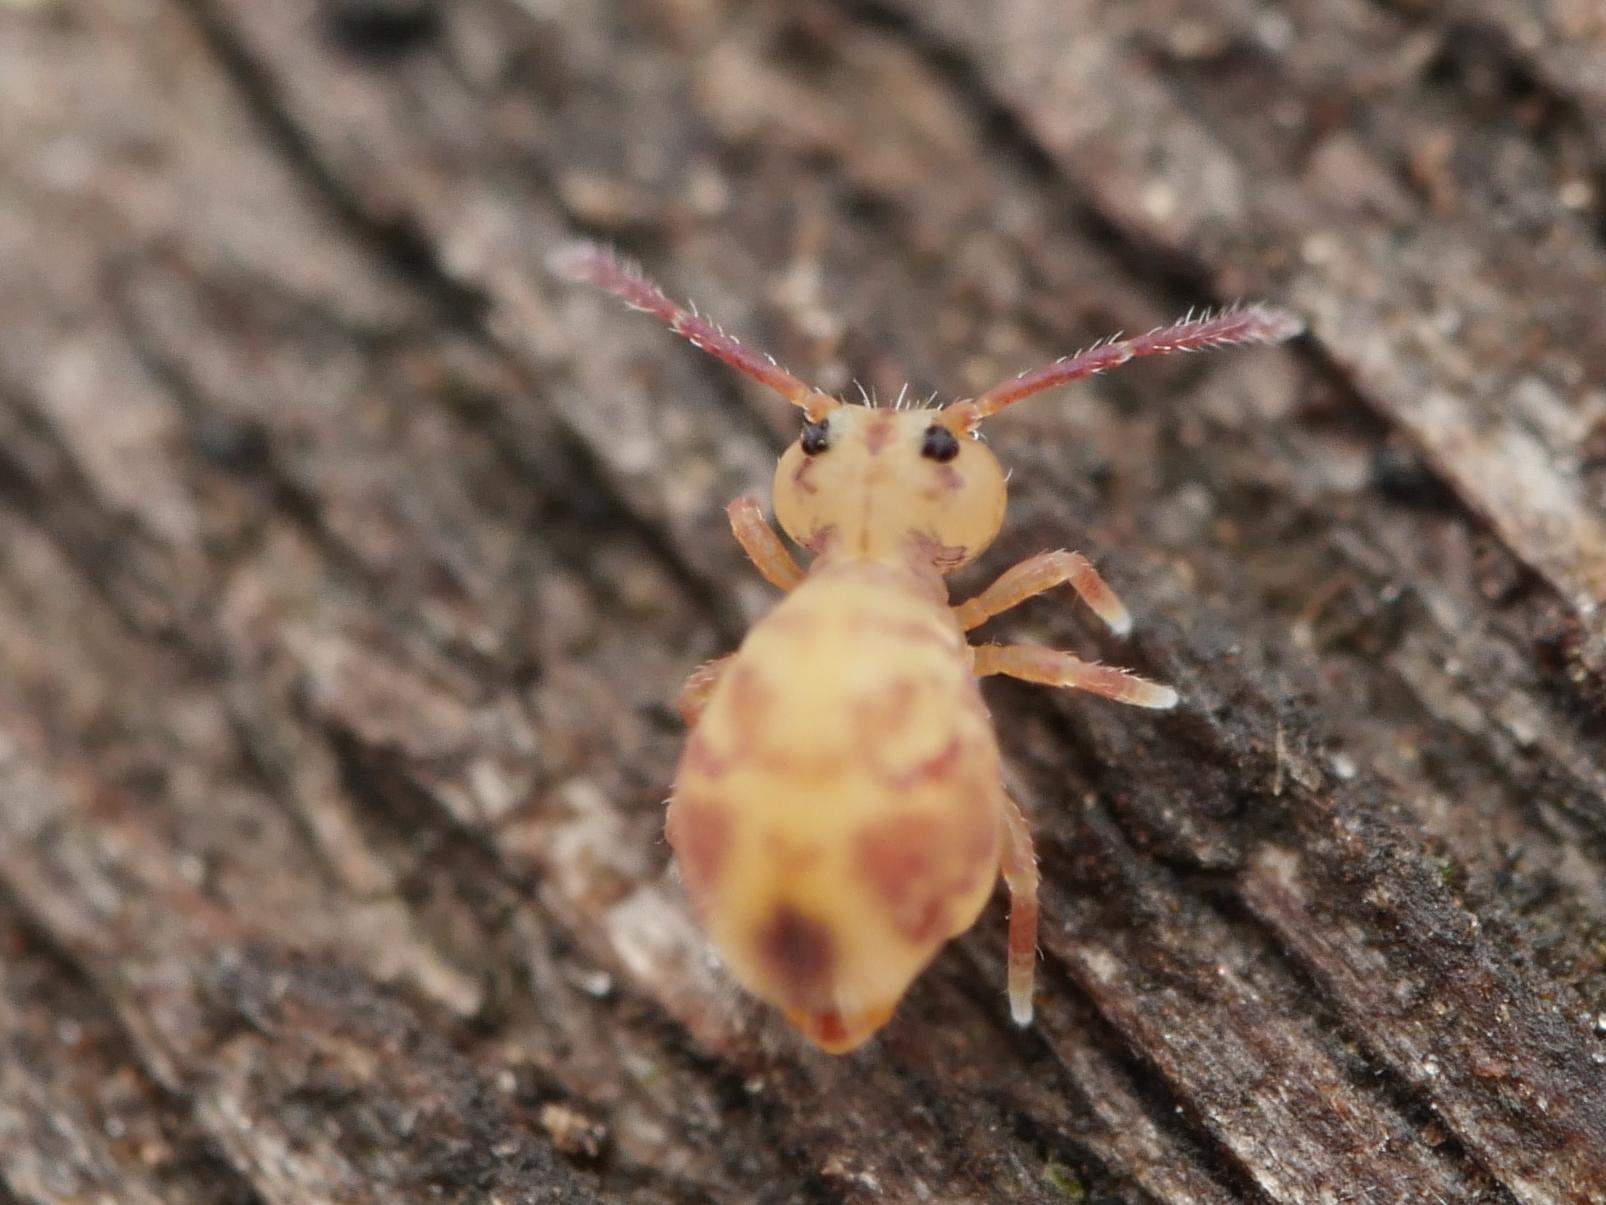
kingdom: Animalia
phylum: Arthropoda
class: Collembola
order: Symphypleona
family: Dicyrtomidae
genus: Dicyrtomina
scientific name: Dicyrtomina ornata
